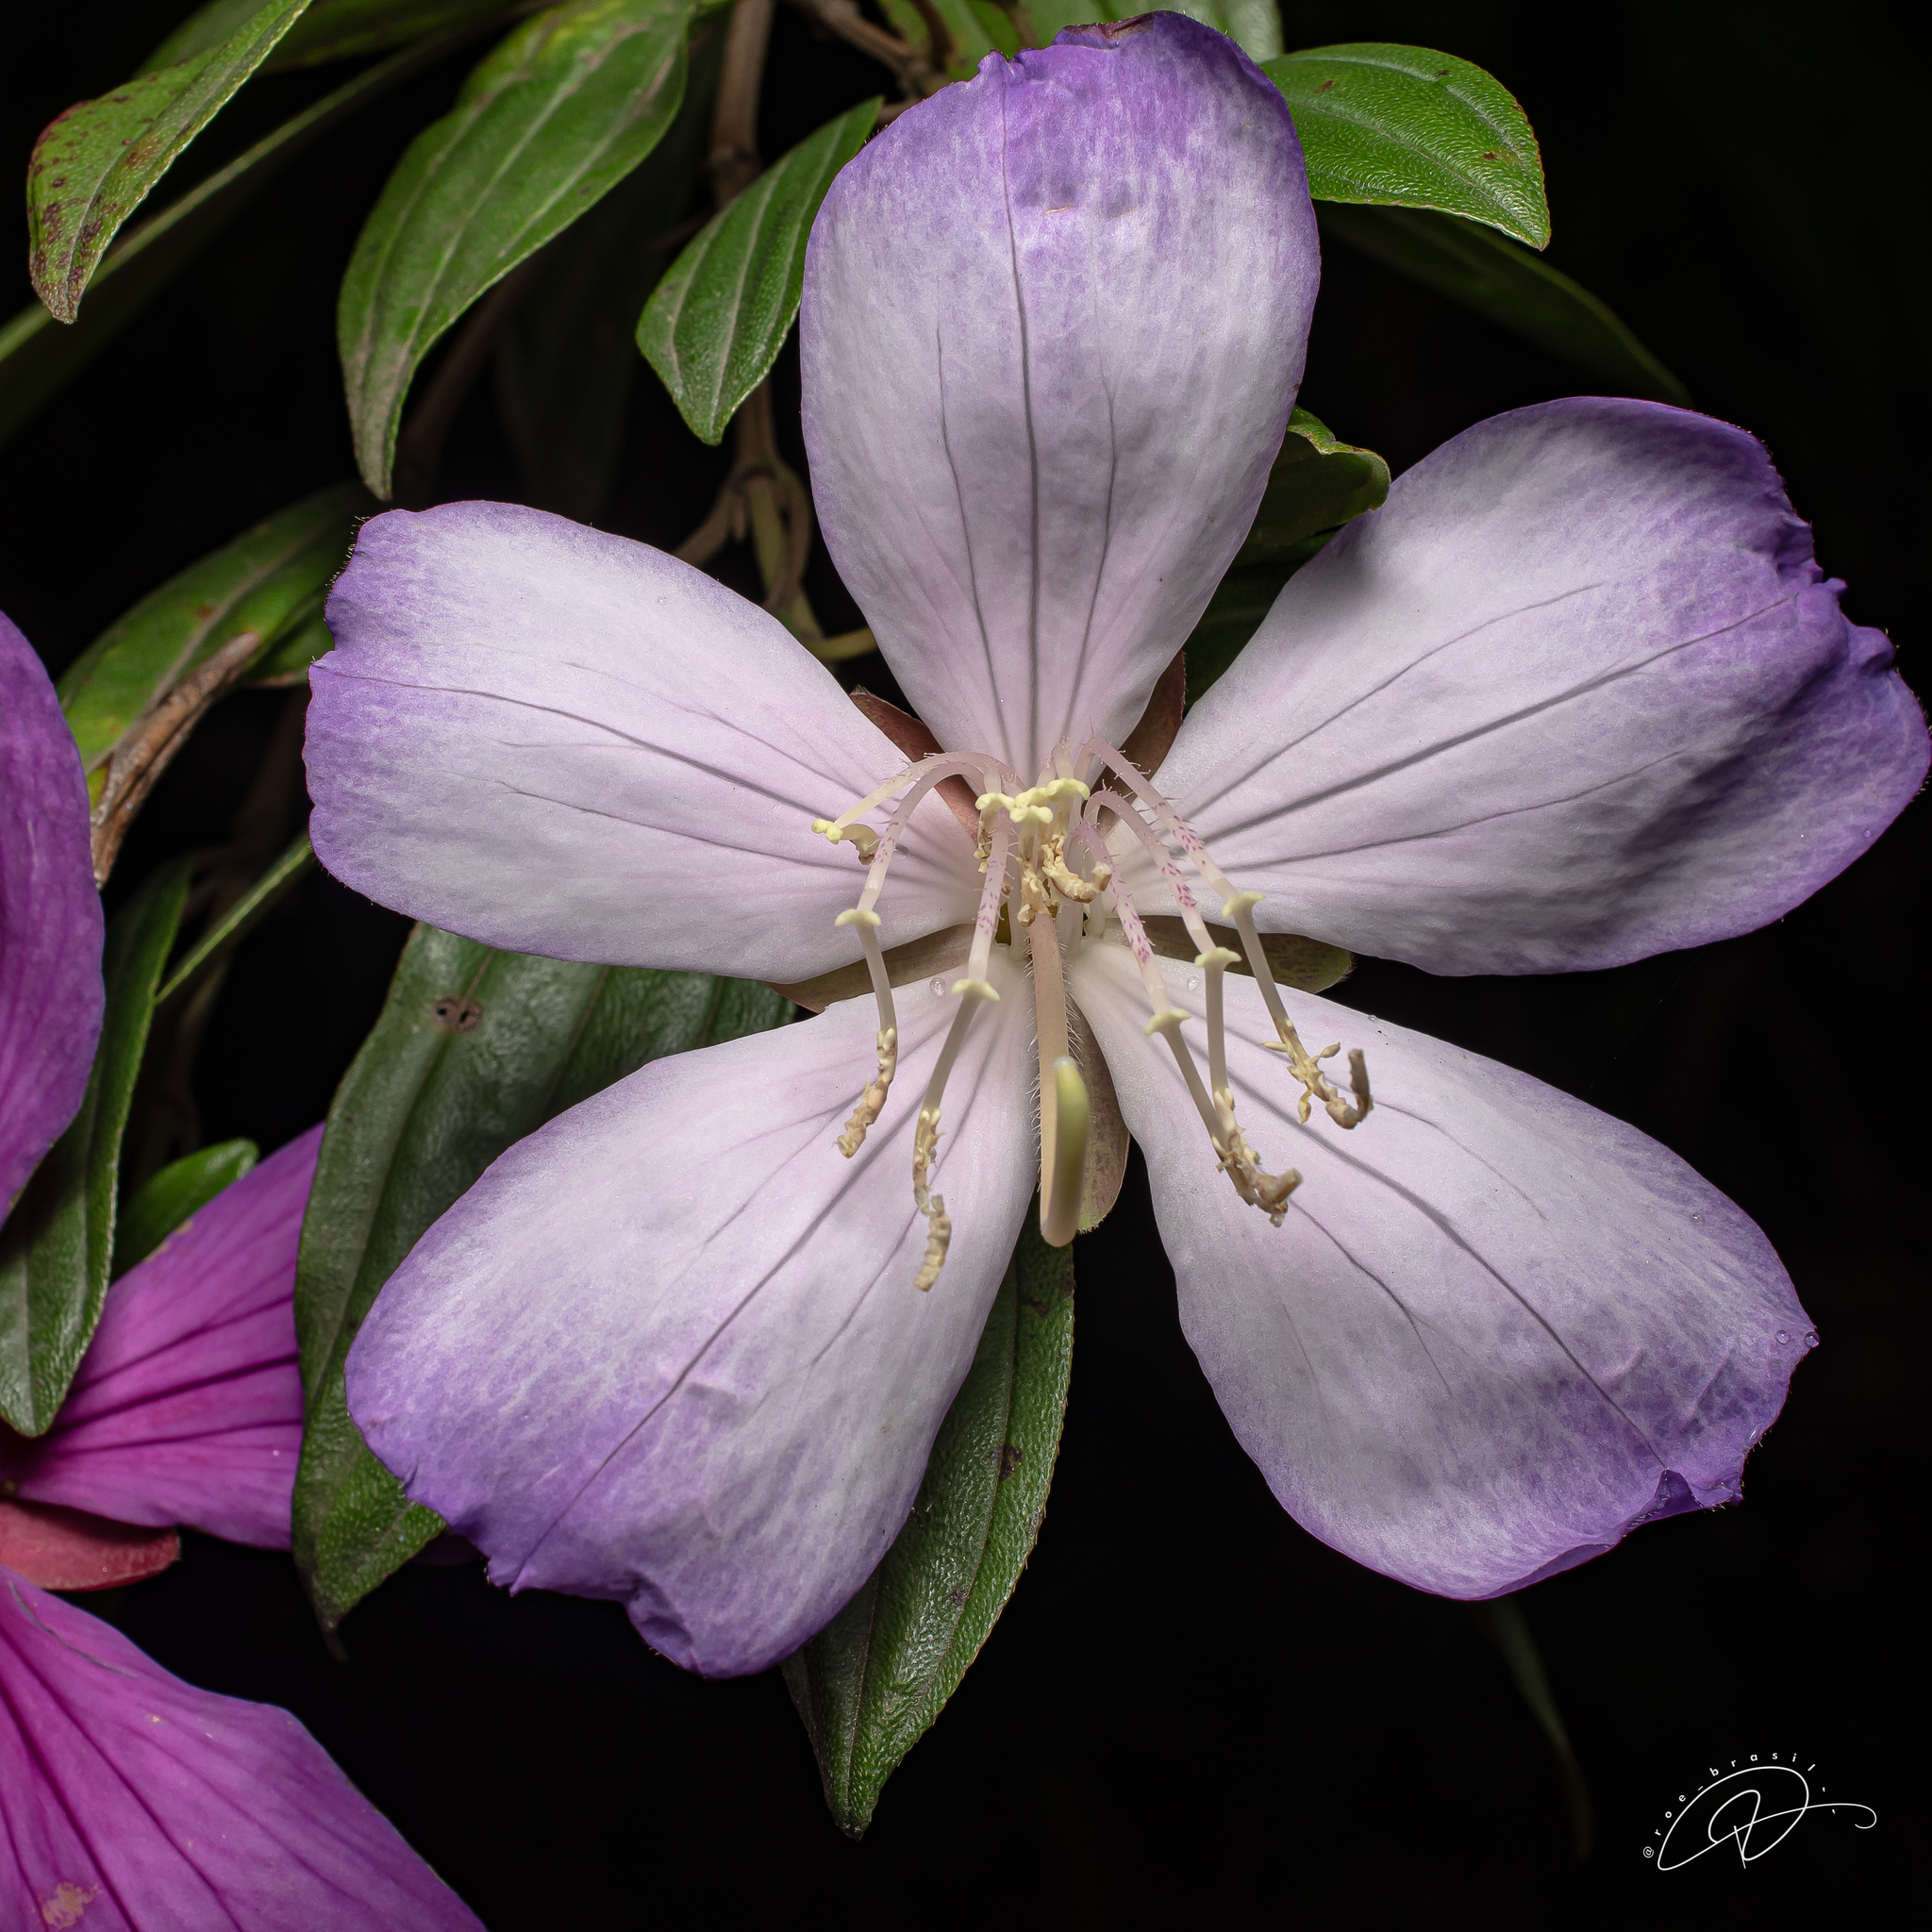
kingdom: Plantae
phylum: Tracheophyta
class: Magnoliopsida
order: Myrtales
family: Melastomataceae
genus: Pleroma
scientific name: Pleroma mutabile
